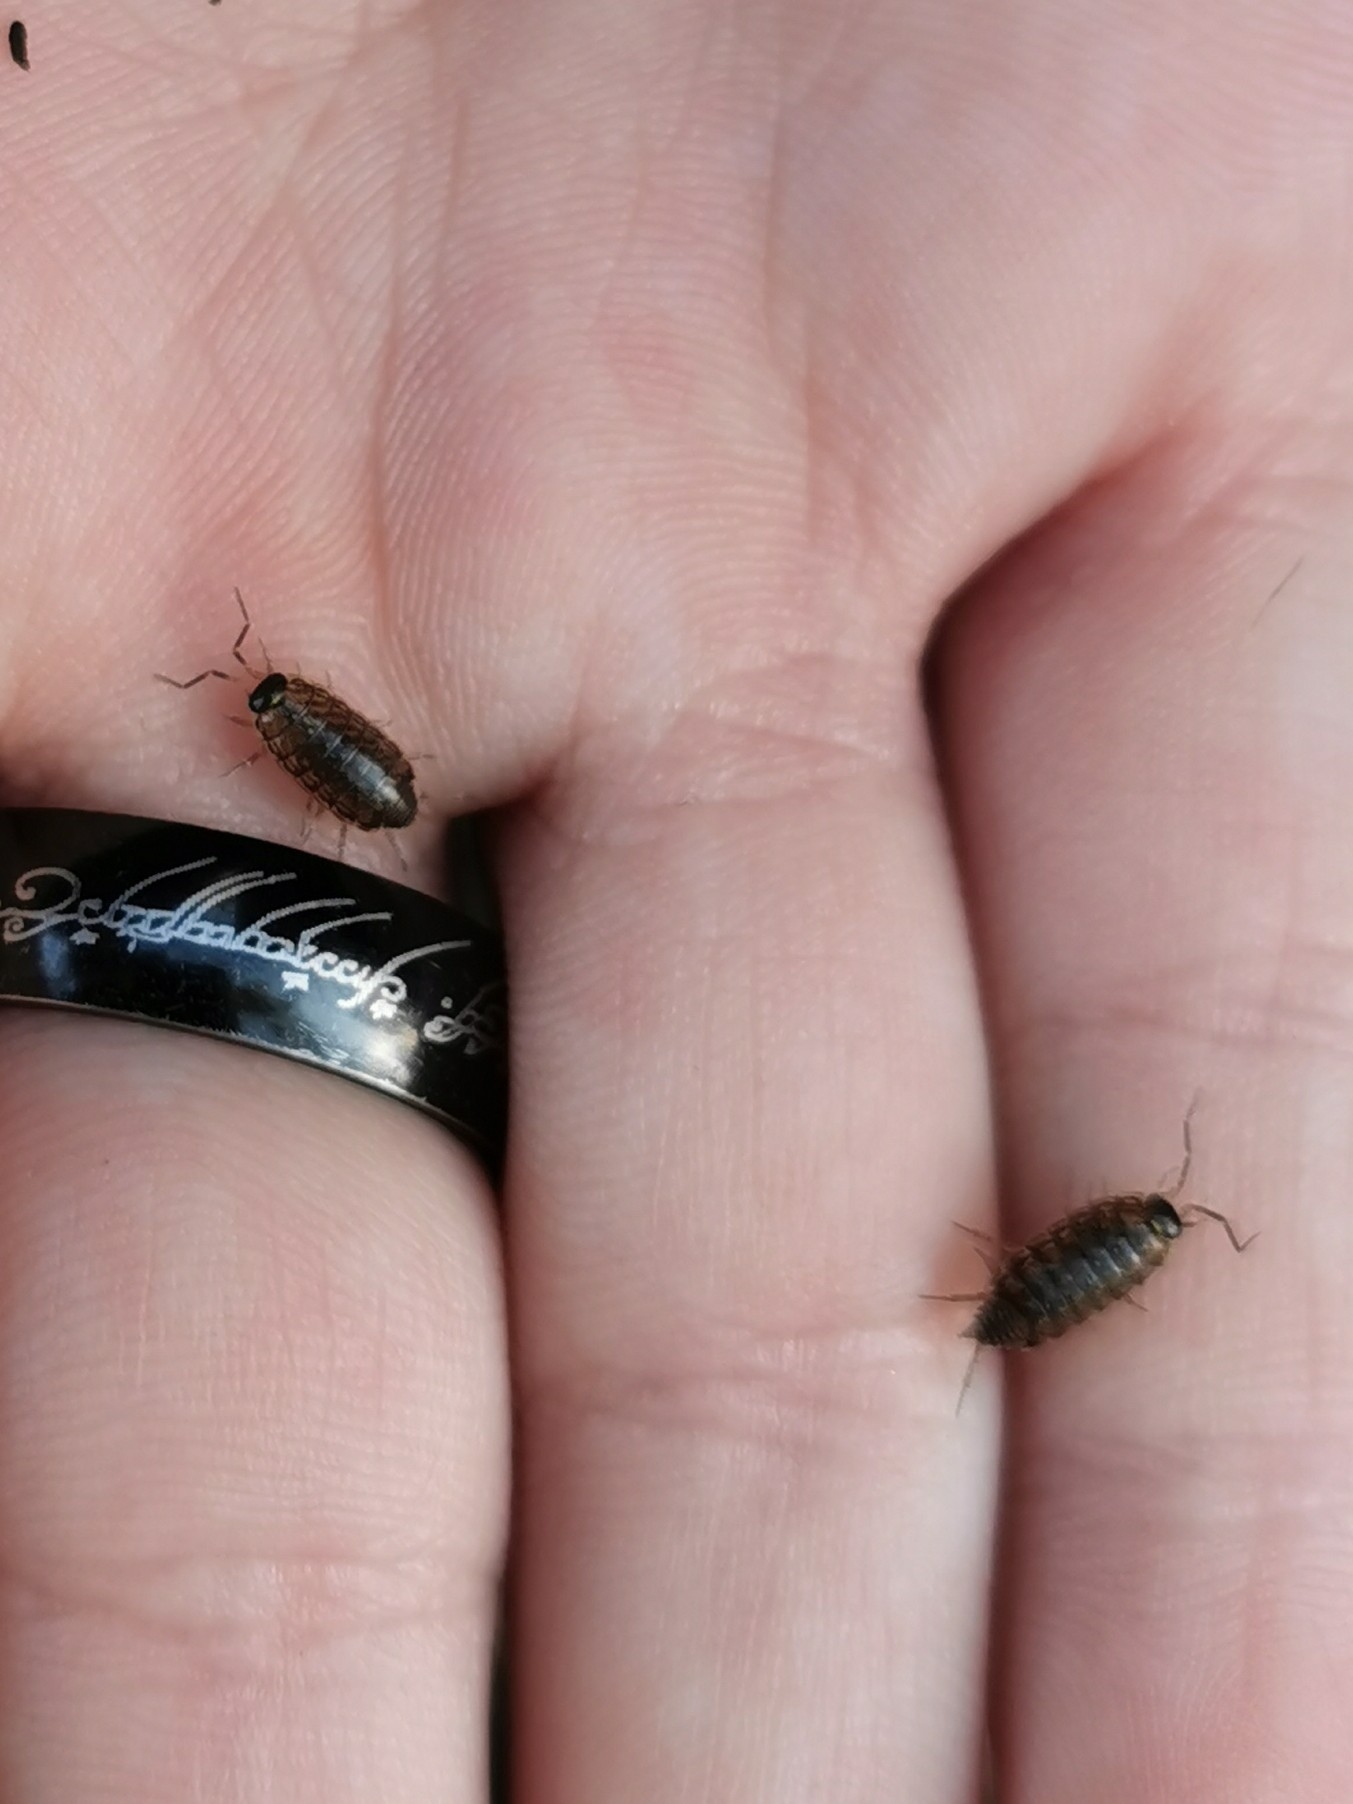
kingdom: Animalia
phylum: Arthropoda
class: Malacostraca
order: Isopoda
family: Philosciidae
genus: Philoscia
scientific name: Philoscia muscorum
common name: Common striped woodlouse
